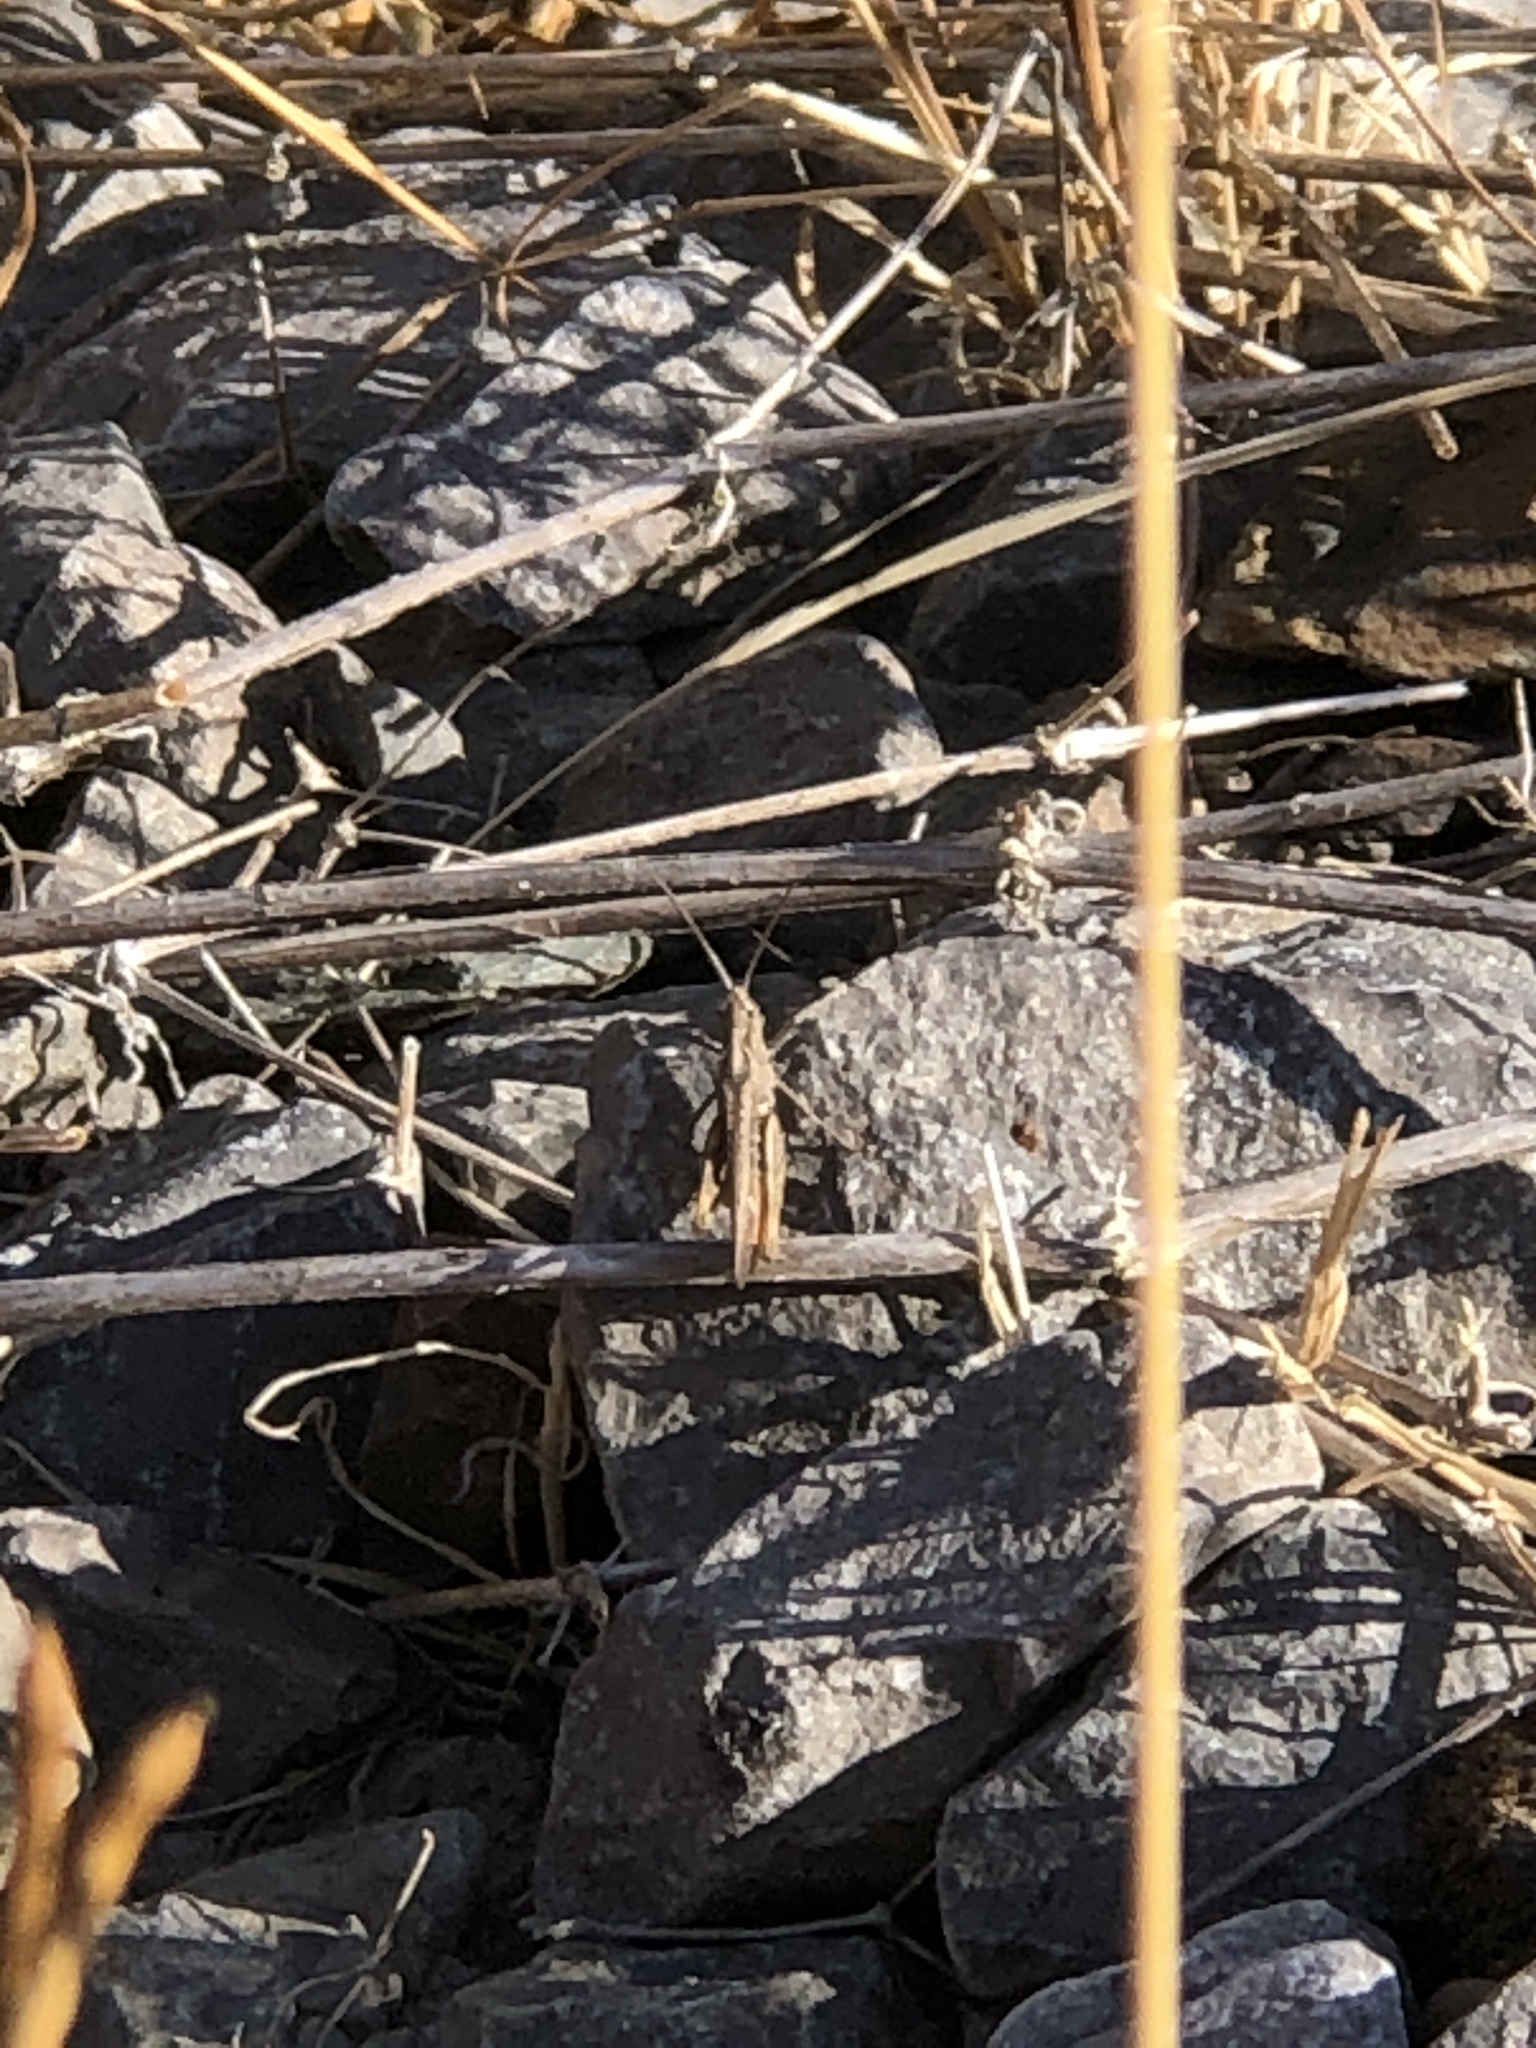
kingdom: Animalia
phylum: Arthropoda
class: Insecta
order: Orthoptera
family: Acrididae
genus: Chorthippus
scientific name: Chorthippus brunneus
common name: Field grasshopper
